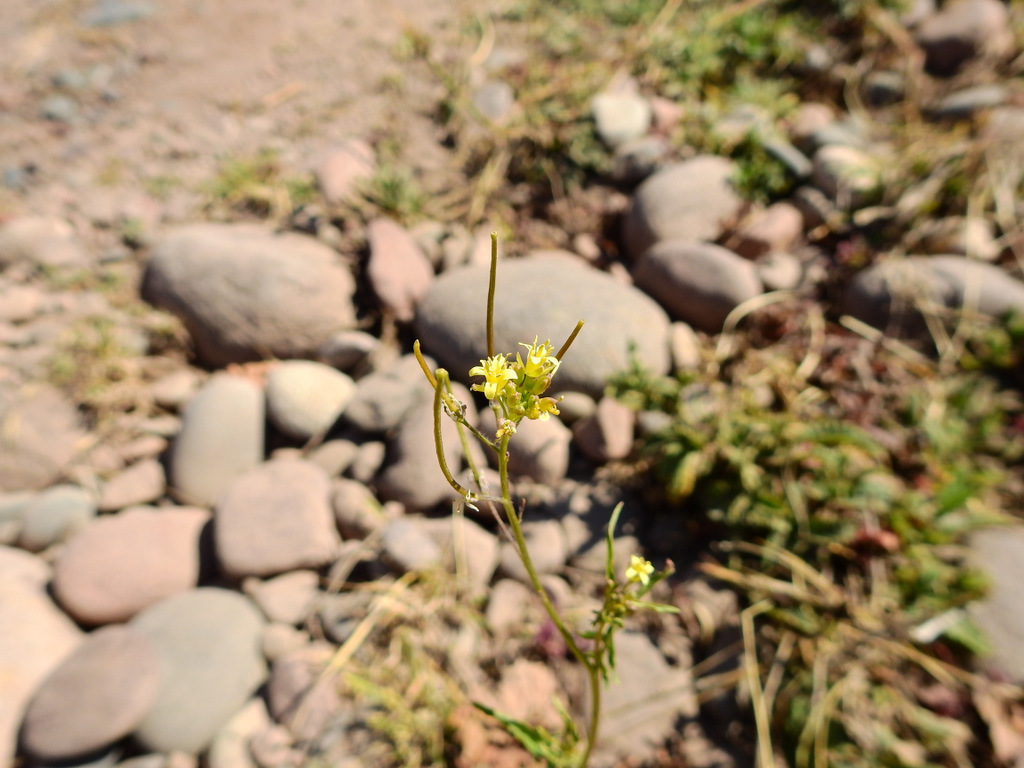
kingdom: Plantae
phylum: Tracheophyta
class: Magnoliopsida
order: Brassicales
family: Brassicaceae
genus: Sisymbrium
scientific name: Sisymbrium irio
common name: London rocket
